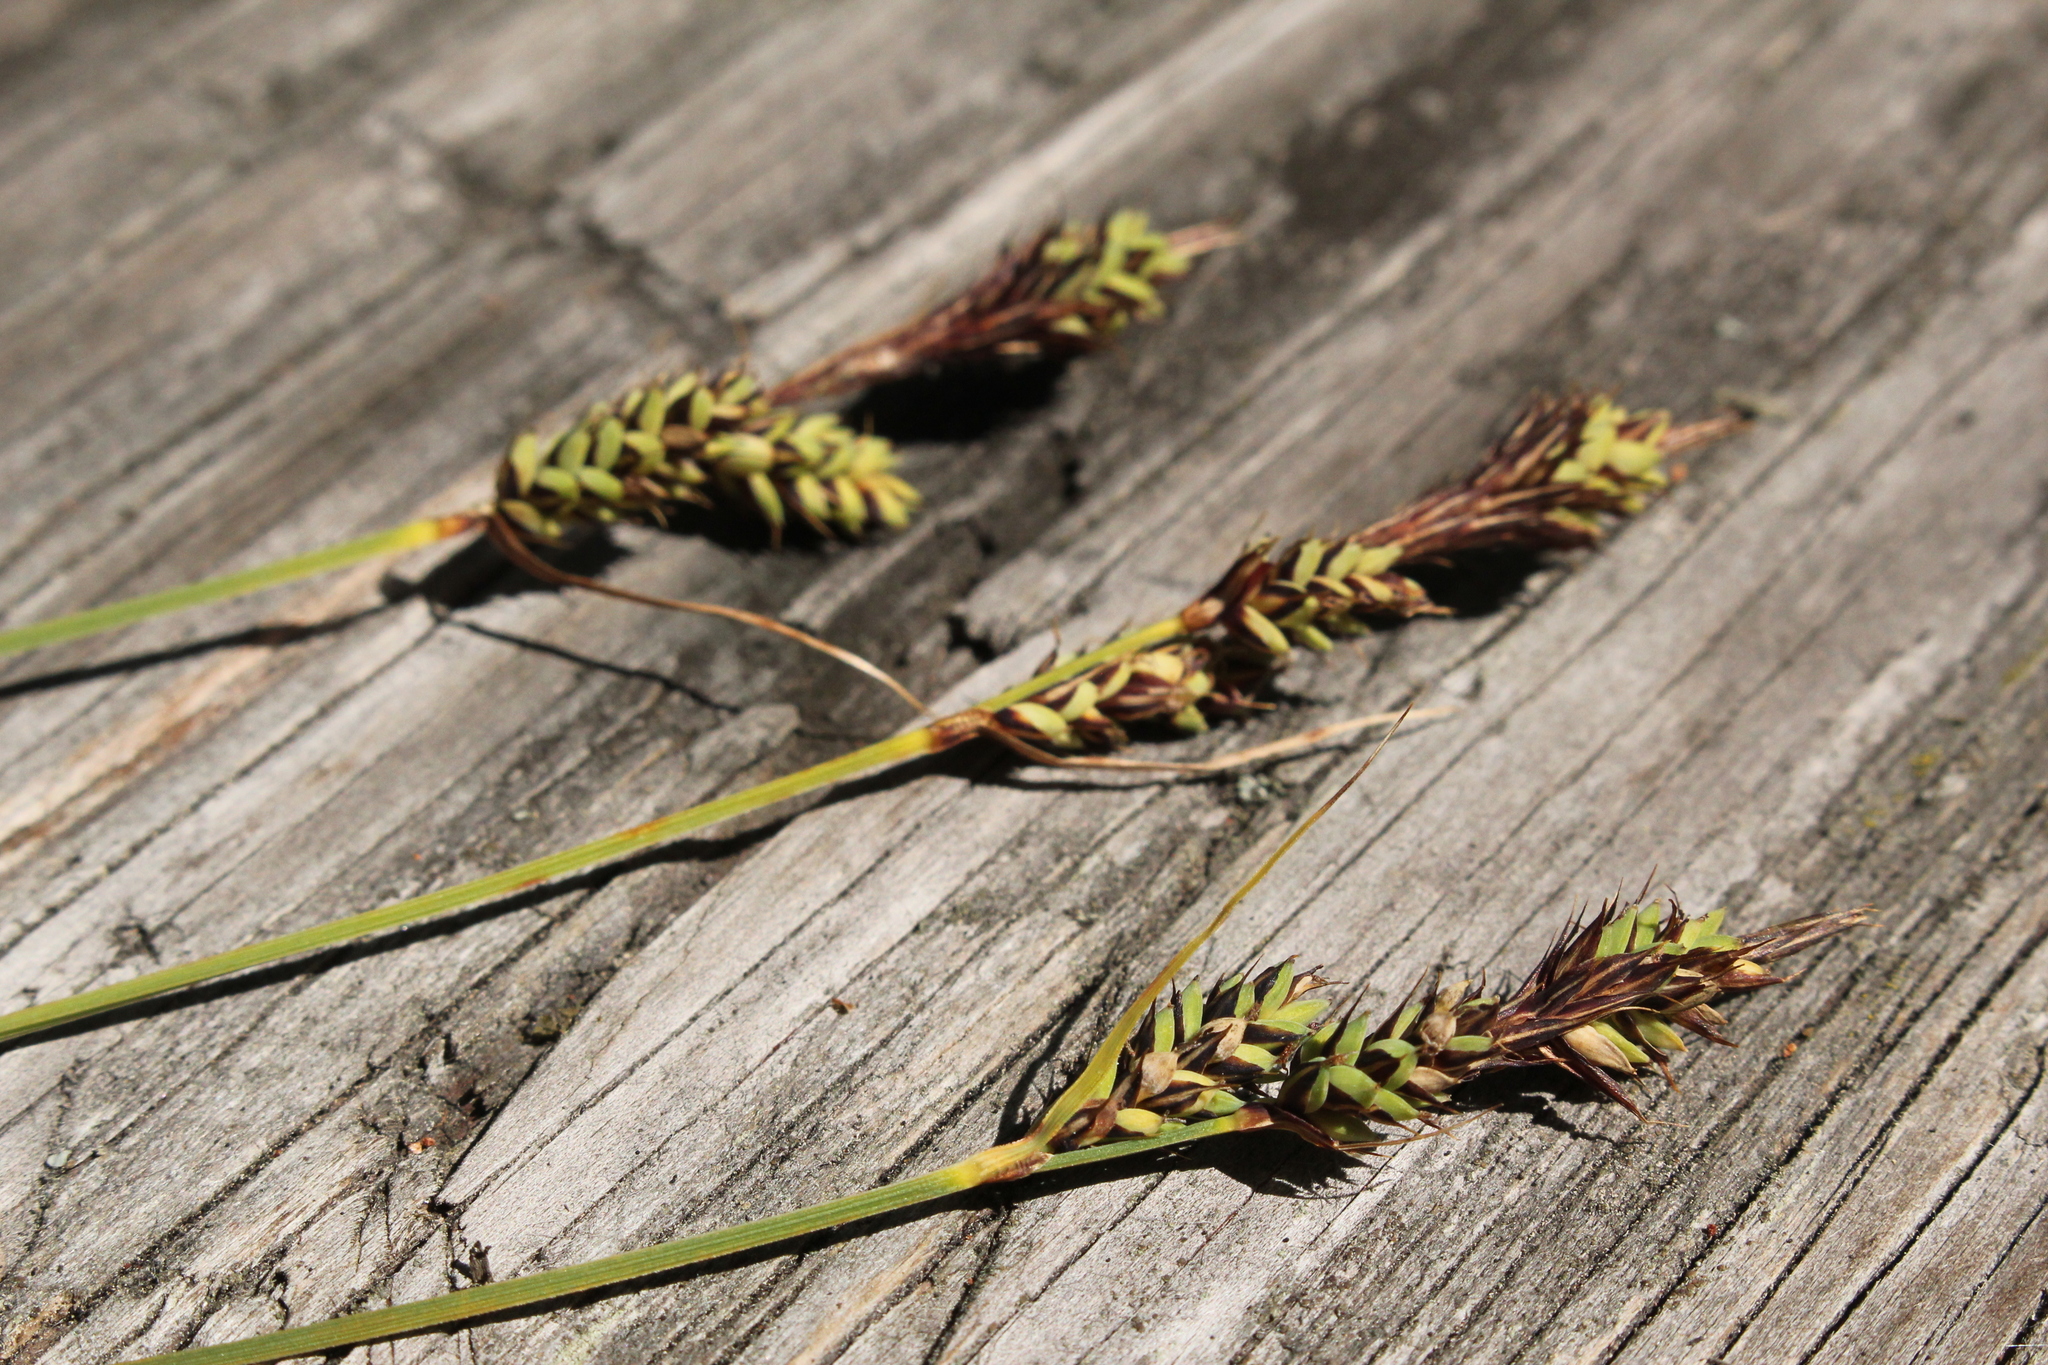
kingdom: Plantae
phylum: Tracheophyta
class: Liliopsida
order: Poales
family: Cyperaceae
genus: Carex
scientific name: Carex buxbaumii
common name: Club sedge
